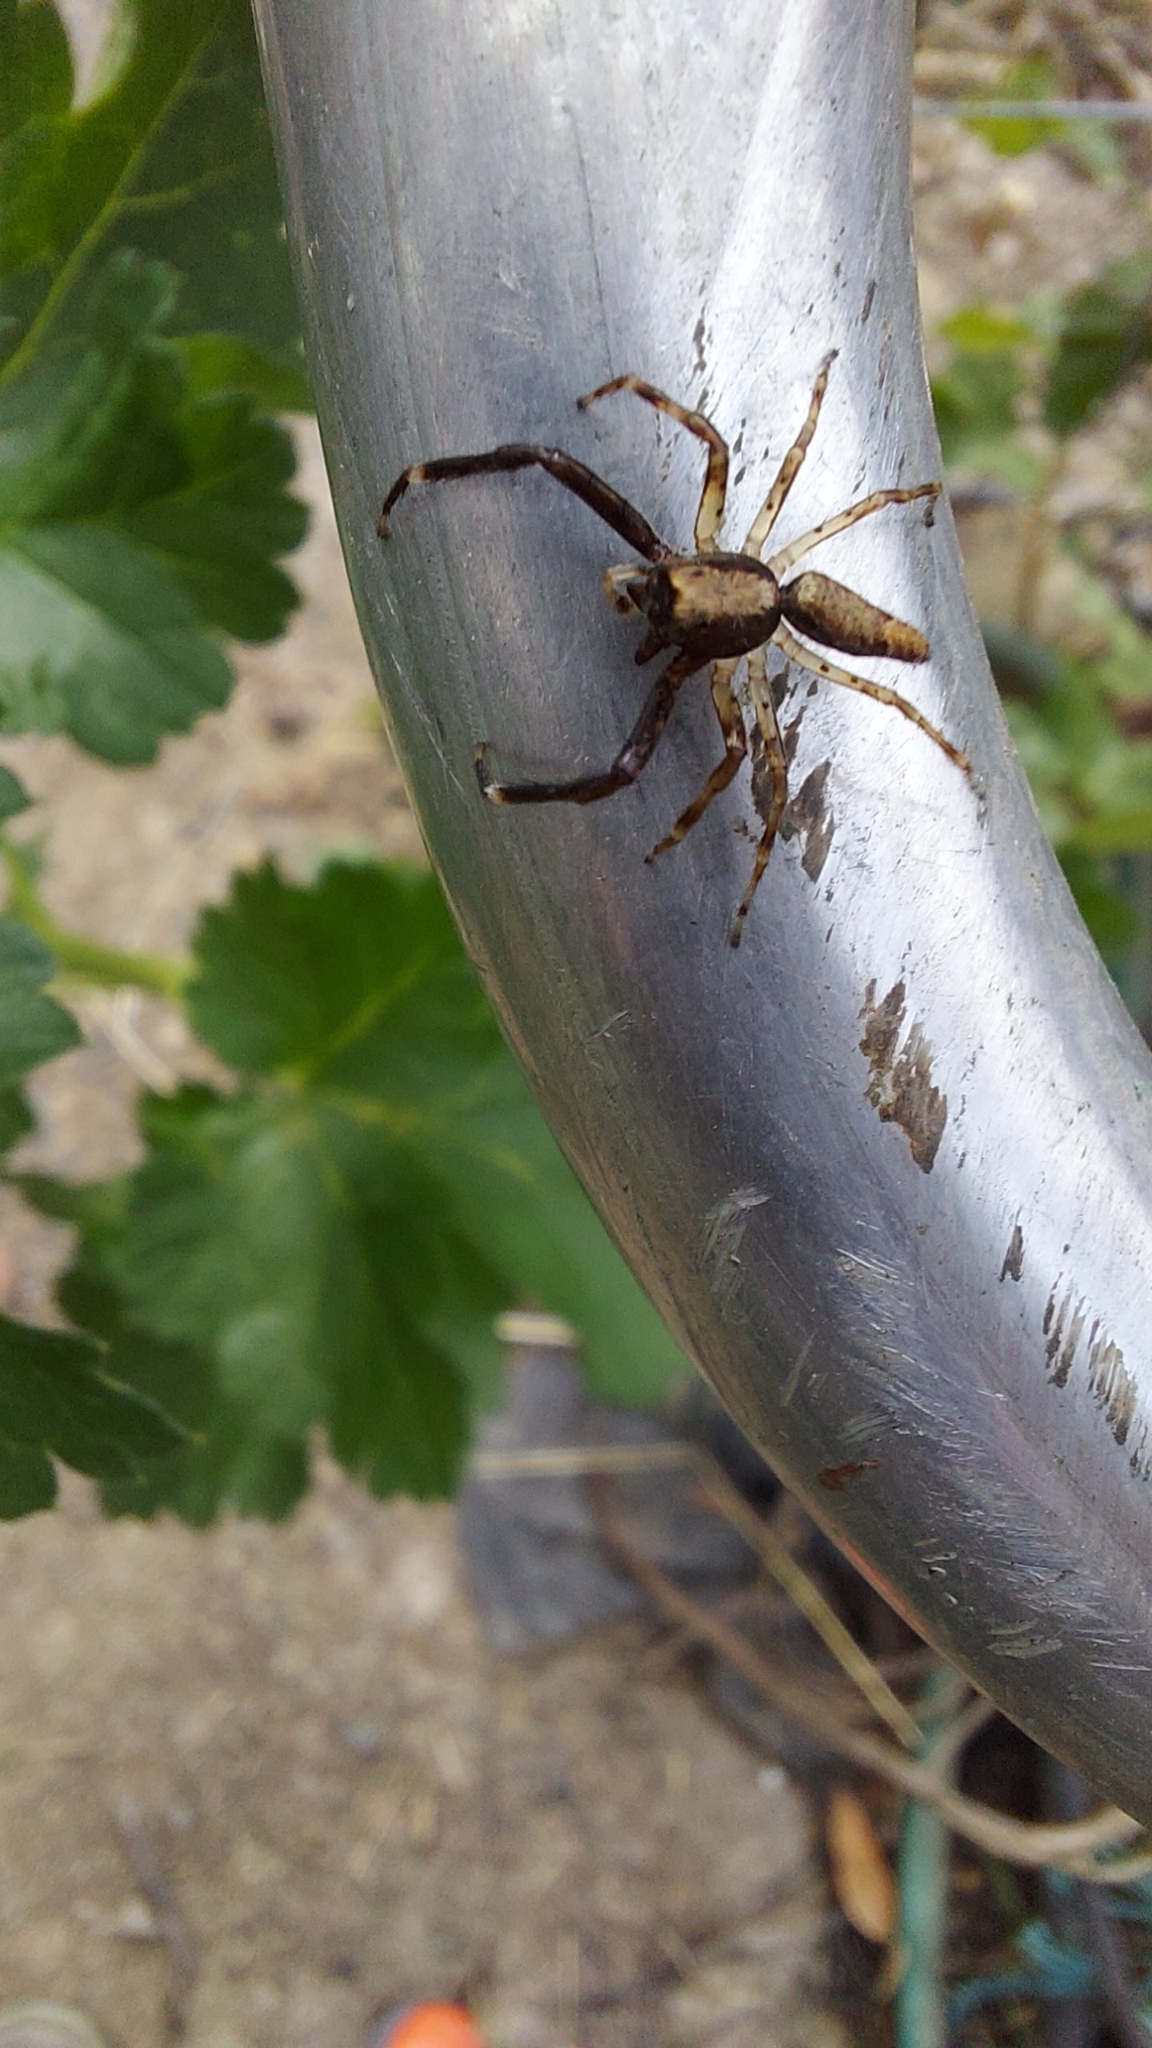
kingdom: Animalia
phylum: Arthropoda
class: Arachnida
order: Araneae
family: Salticidae
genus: Helpis
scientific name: Helpis minitabunda
